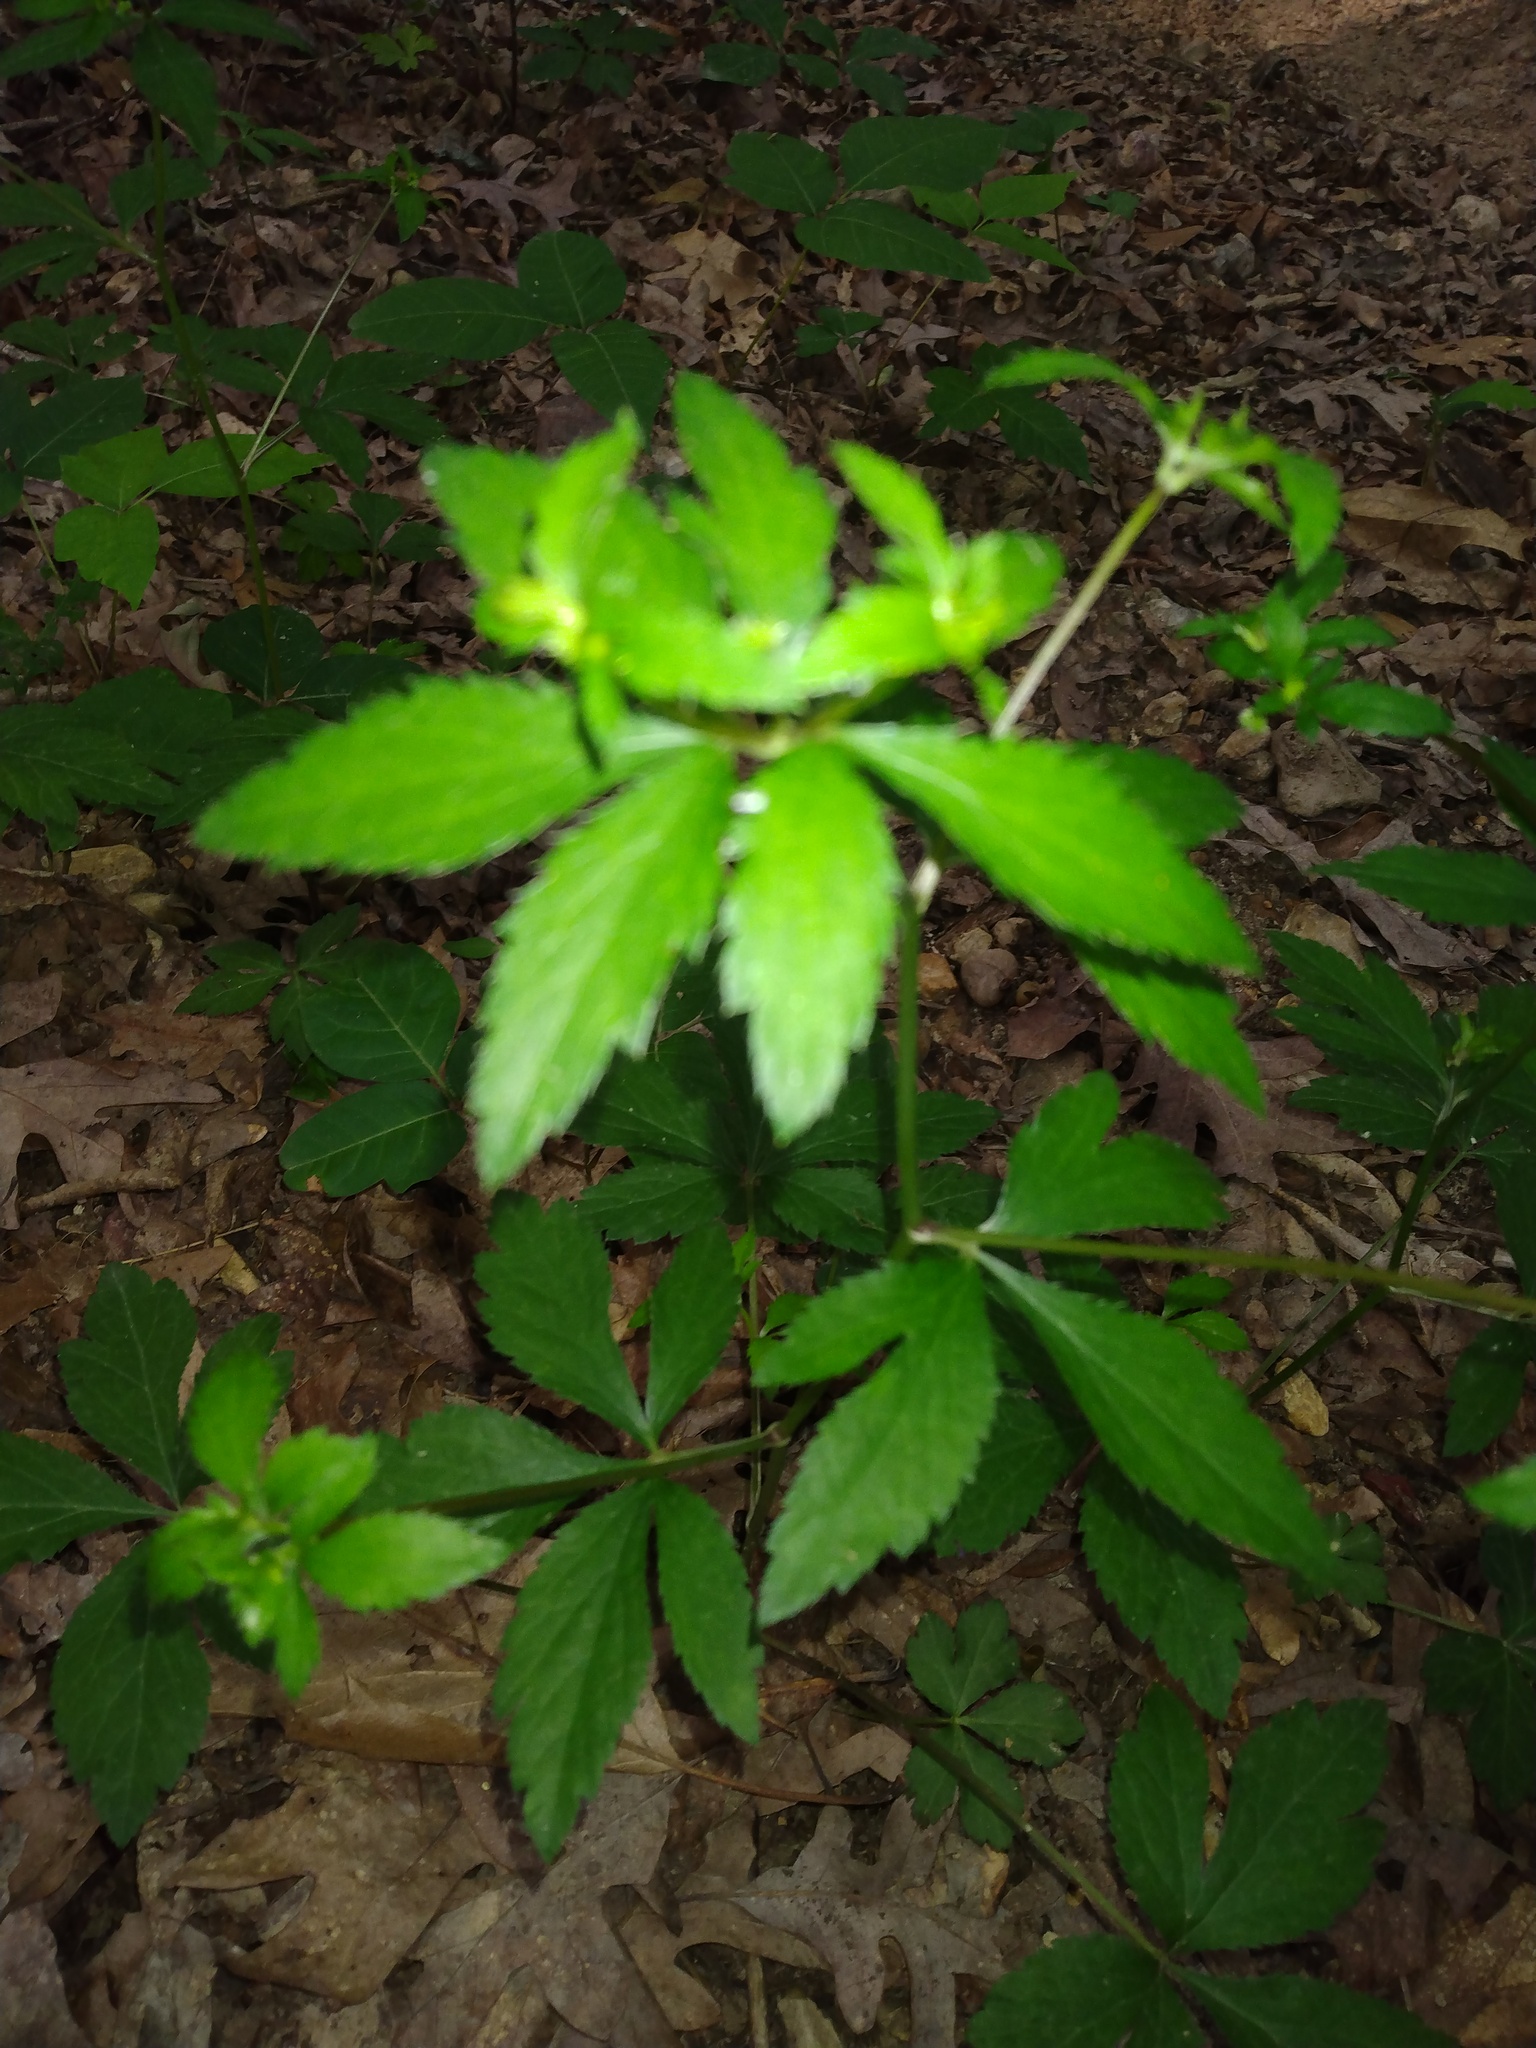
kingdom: Plantae
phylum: Tracheophyta
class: Magnoliopsida
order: Apiales
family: Apiaceae
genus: Sanicula
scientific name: Sanicula canadensis
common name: Canada sanicle
